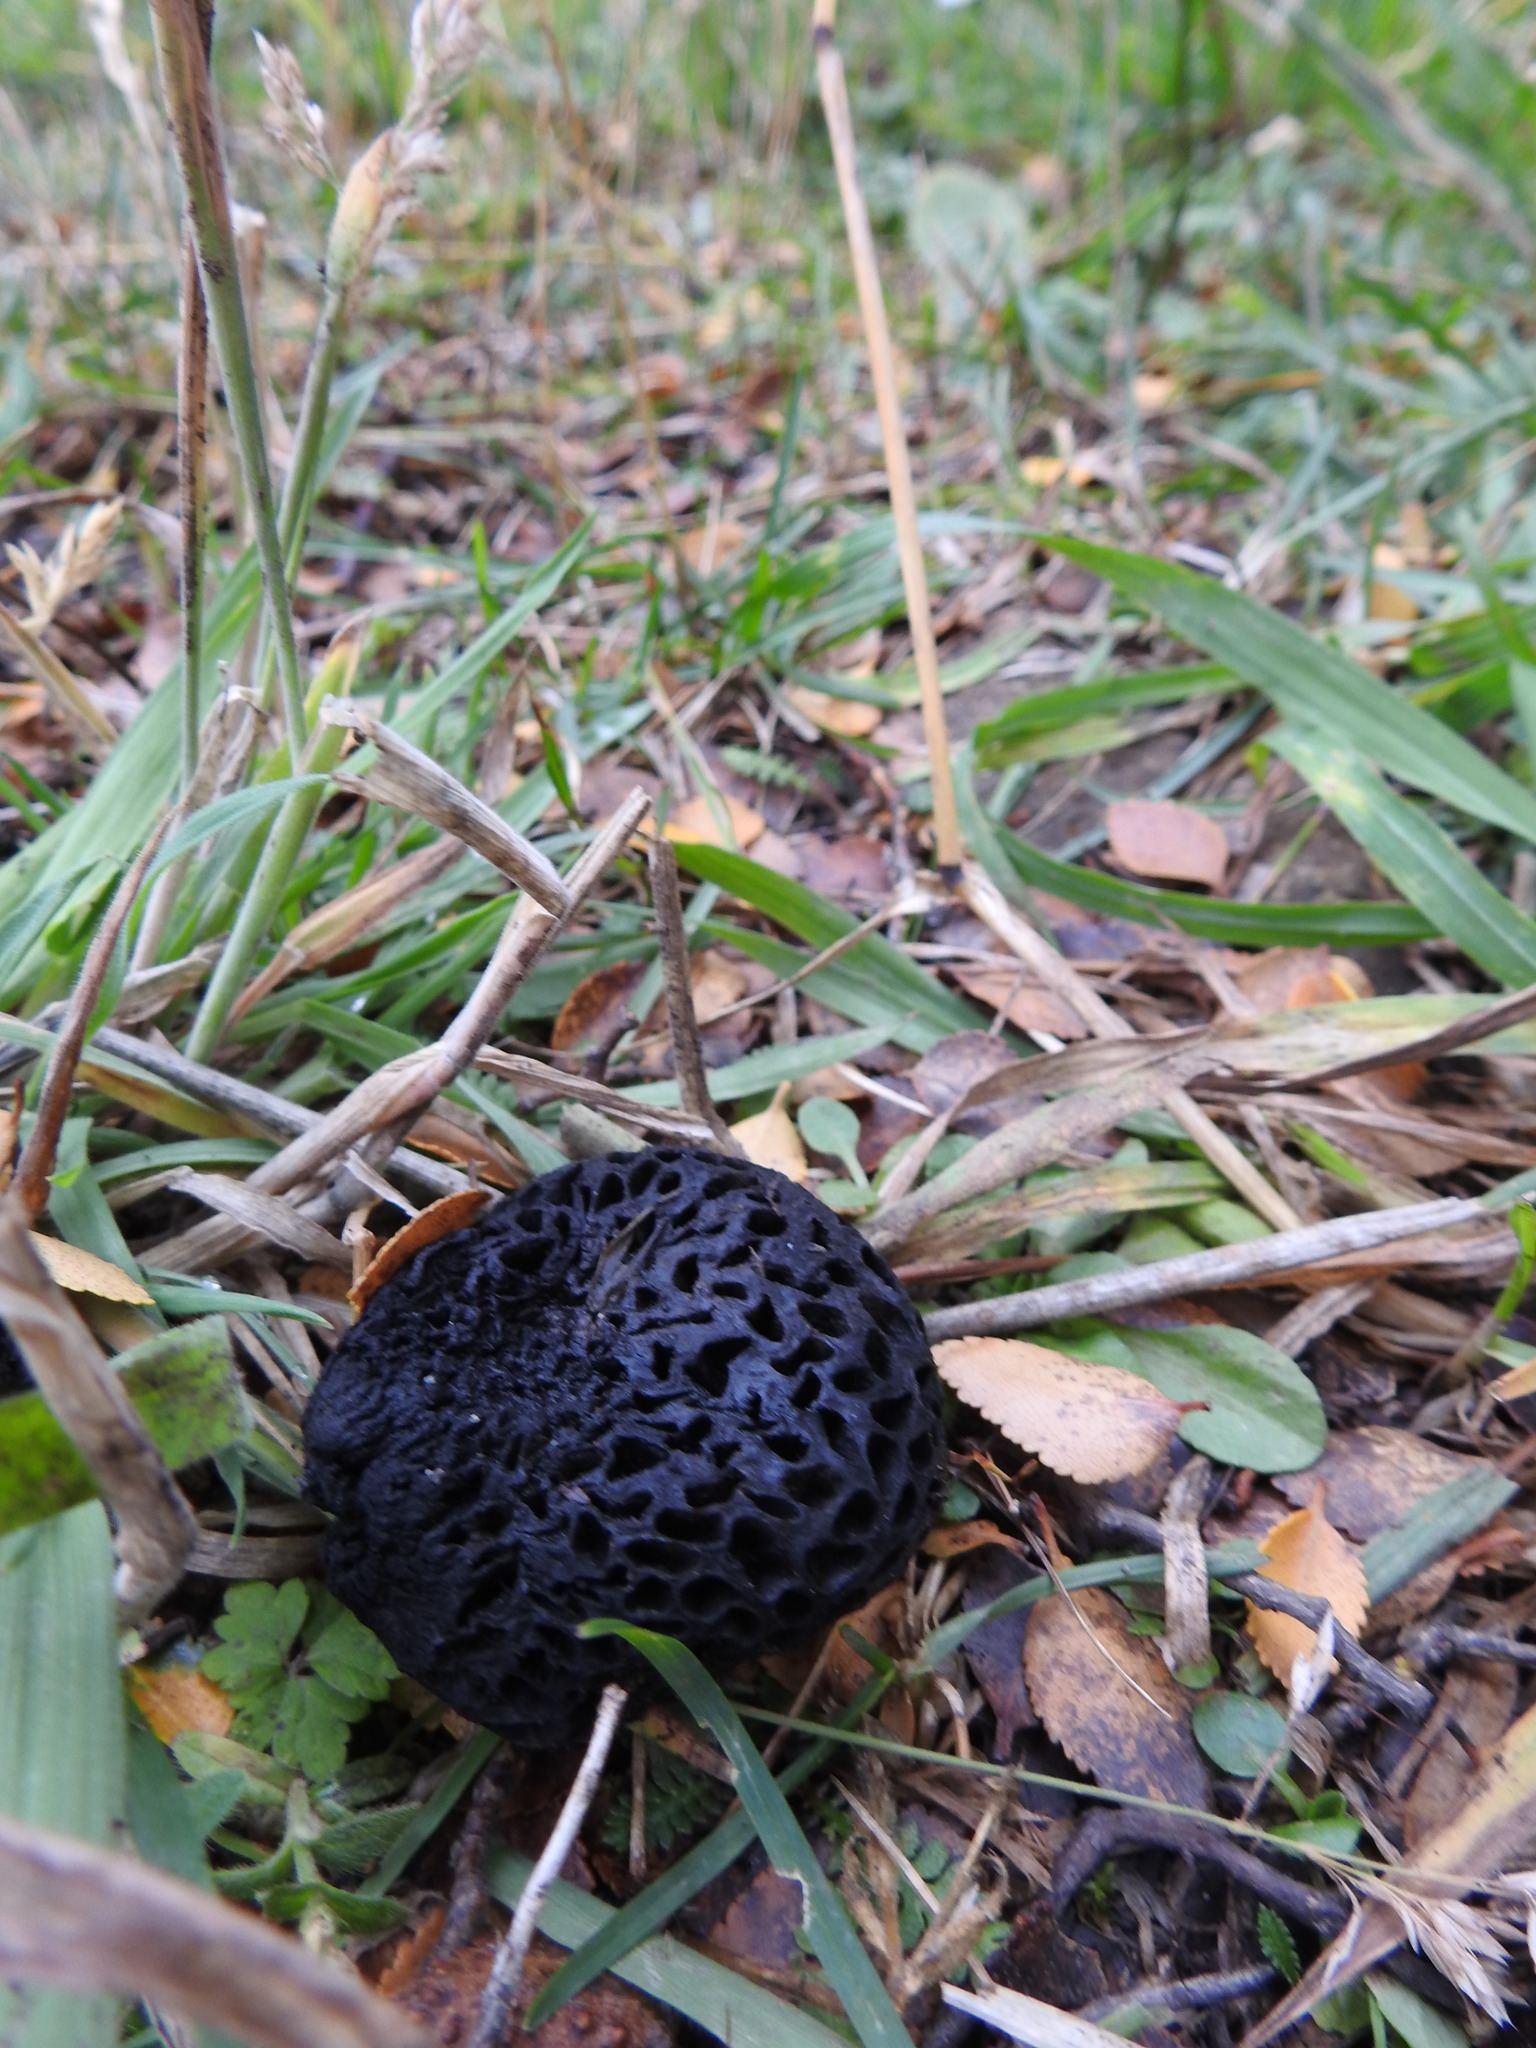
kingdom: Fungi
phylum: Ascomycota
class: Leotiomycetes
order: Cyttariales
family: Cyttariaceae
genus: Cyttaria
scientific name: Cyttaria hariotii
